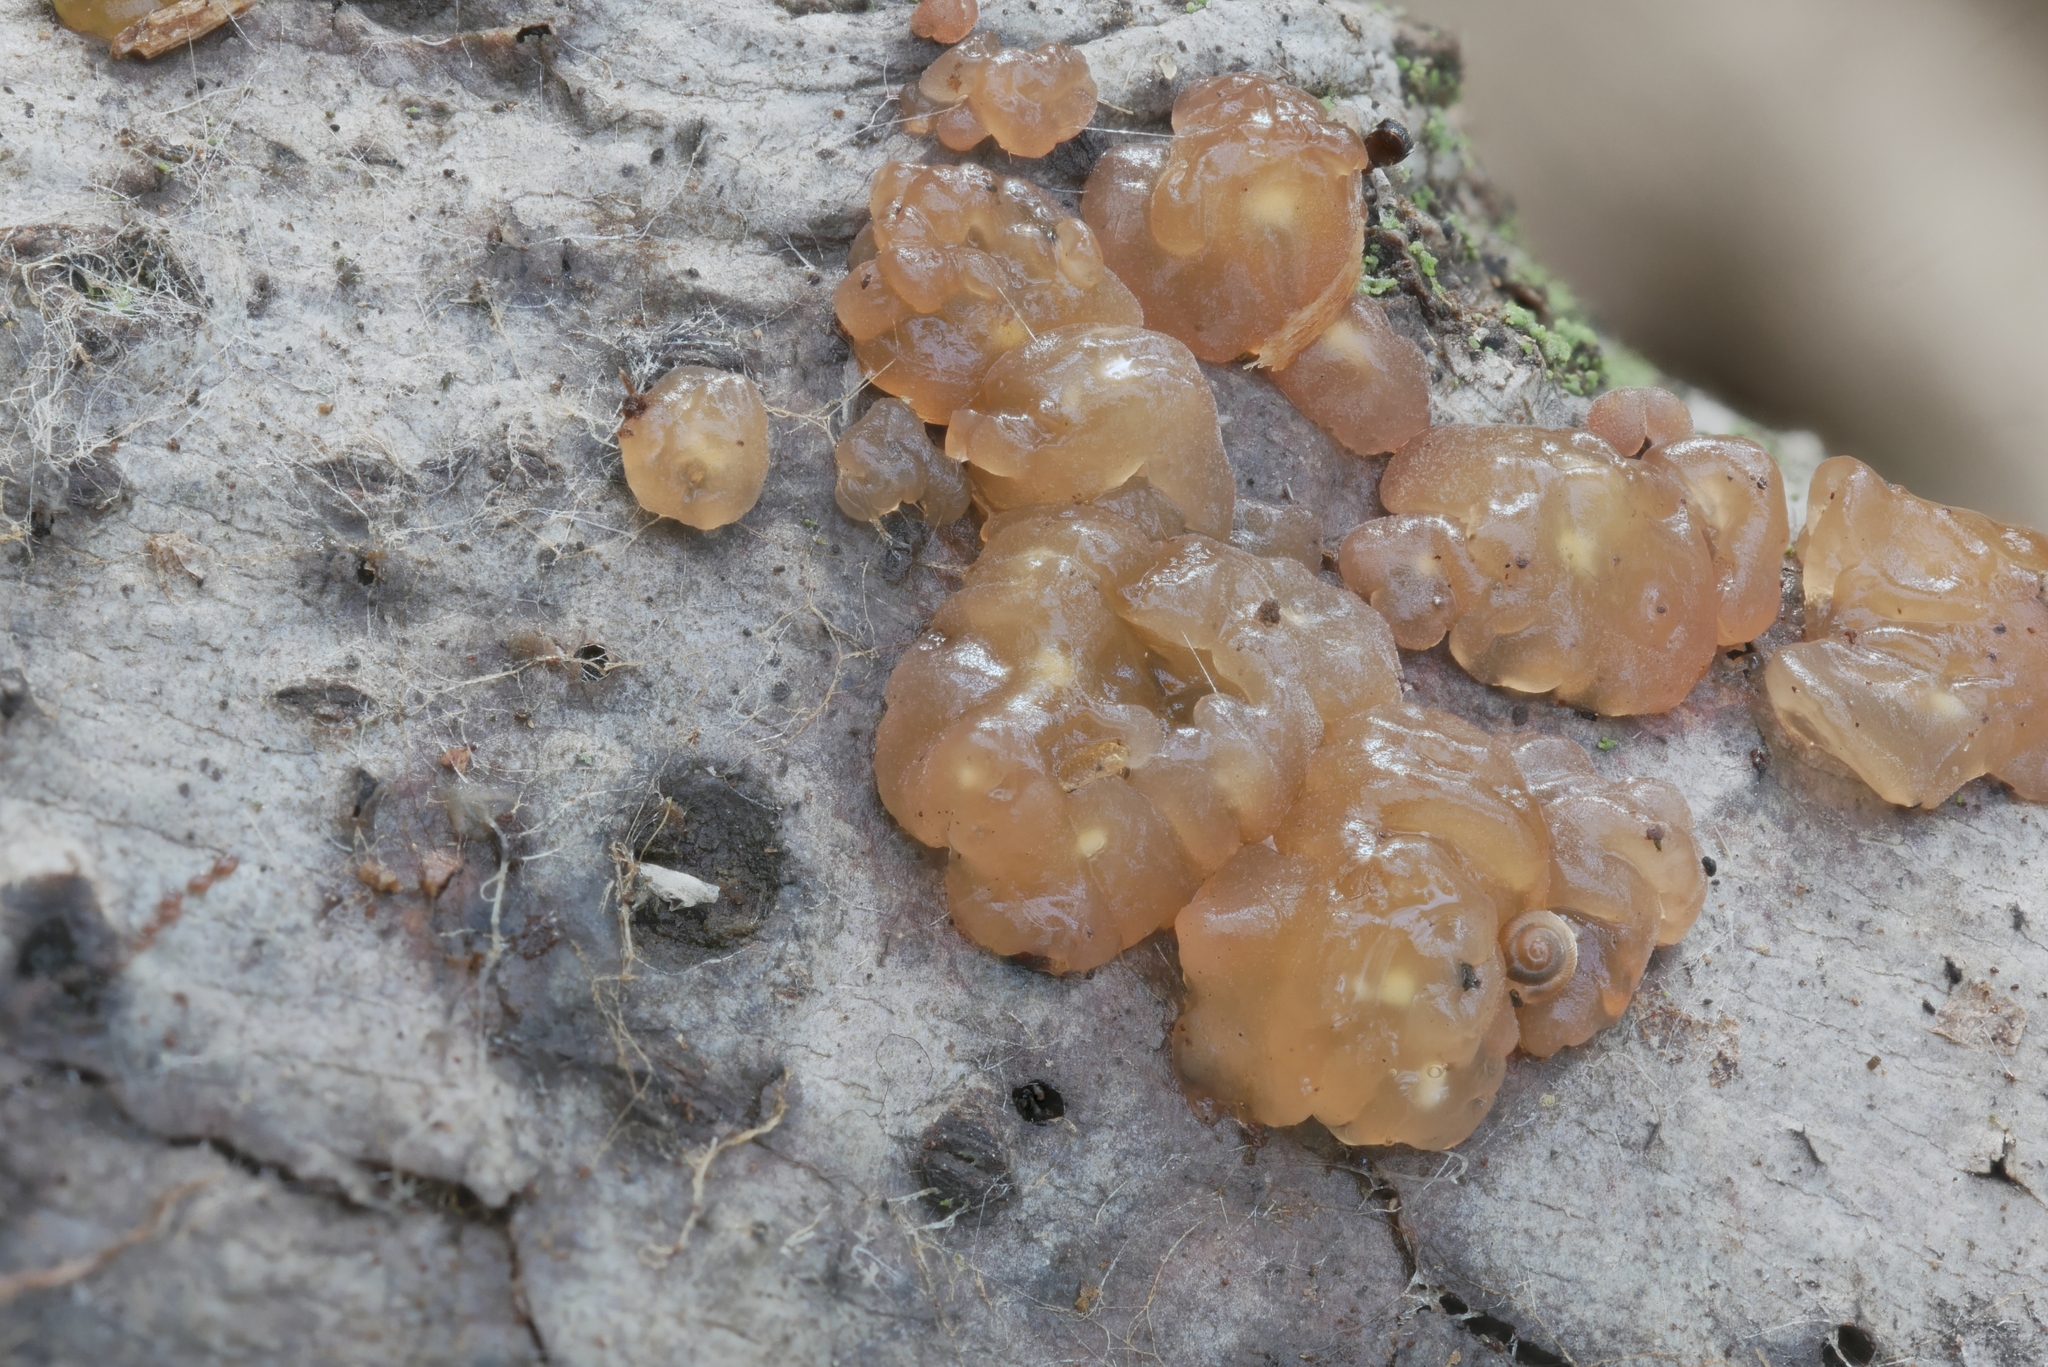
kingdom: Fungi
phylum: Basidiomycota
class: Agaricomycetes
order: Auriculariales
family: Hyaloriaceae
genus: Myxarium
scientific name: Myxarium nucleatum
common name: Crystal brain fungus
